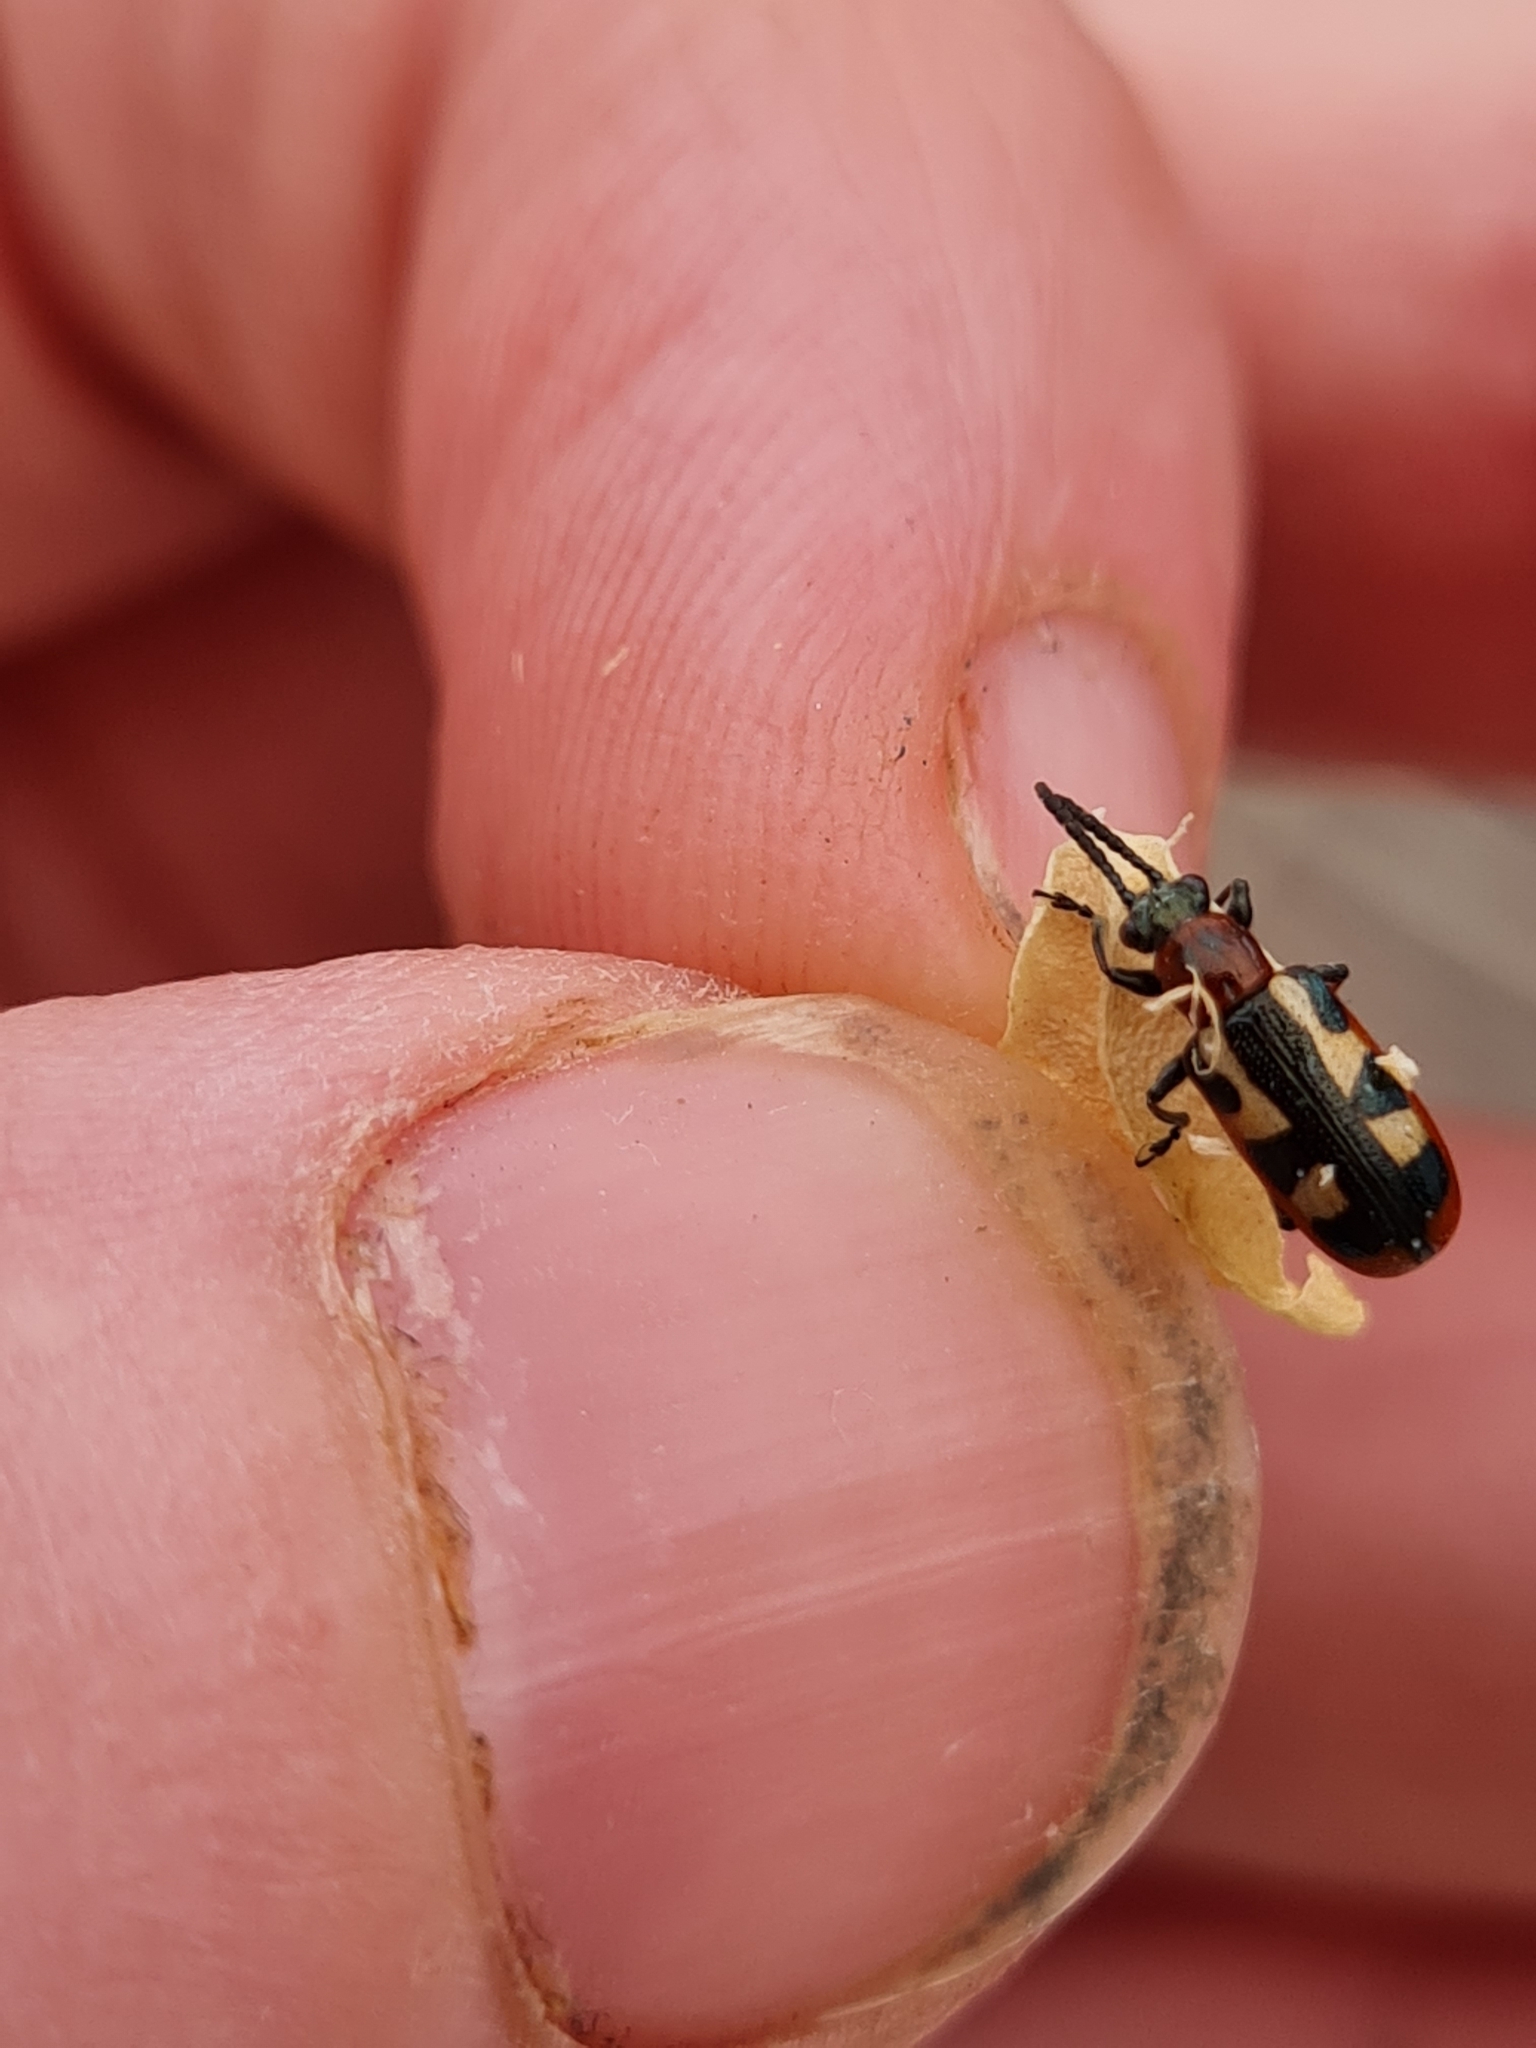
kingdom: Animalia
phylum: Arthropoda
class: Insecta
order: Coleoptera
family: Chrysomelidae
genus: Crioceris
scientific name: Crioceris asparagi
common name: Asparagus beetle
